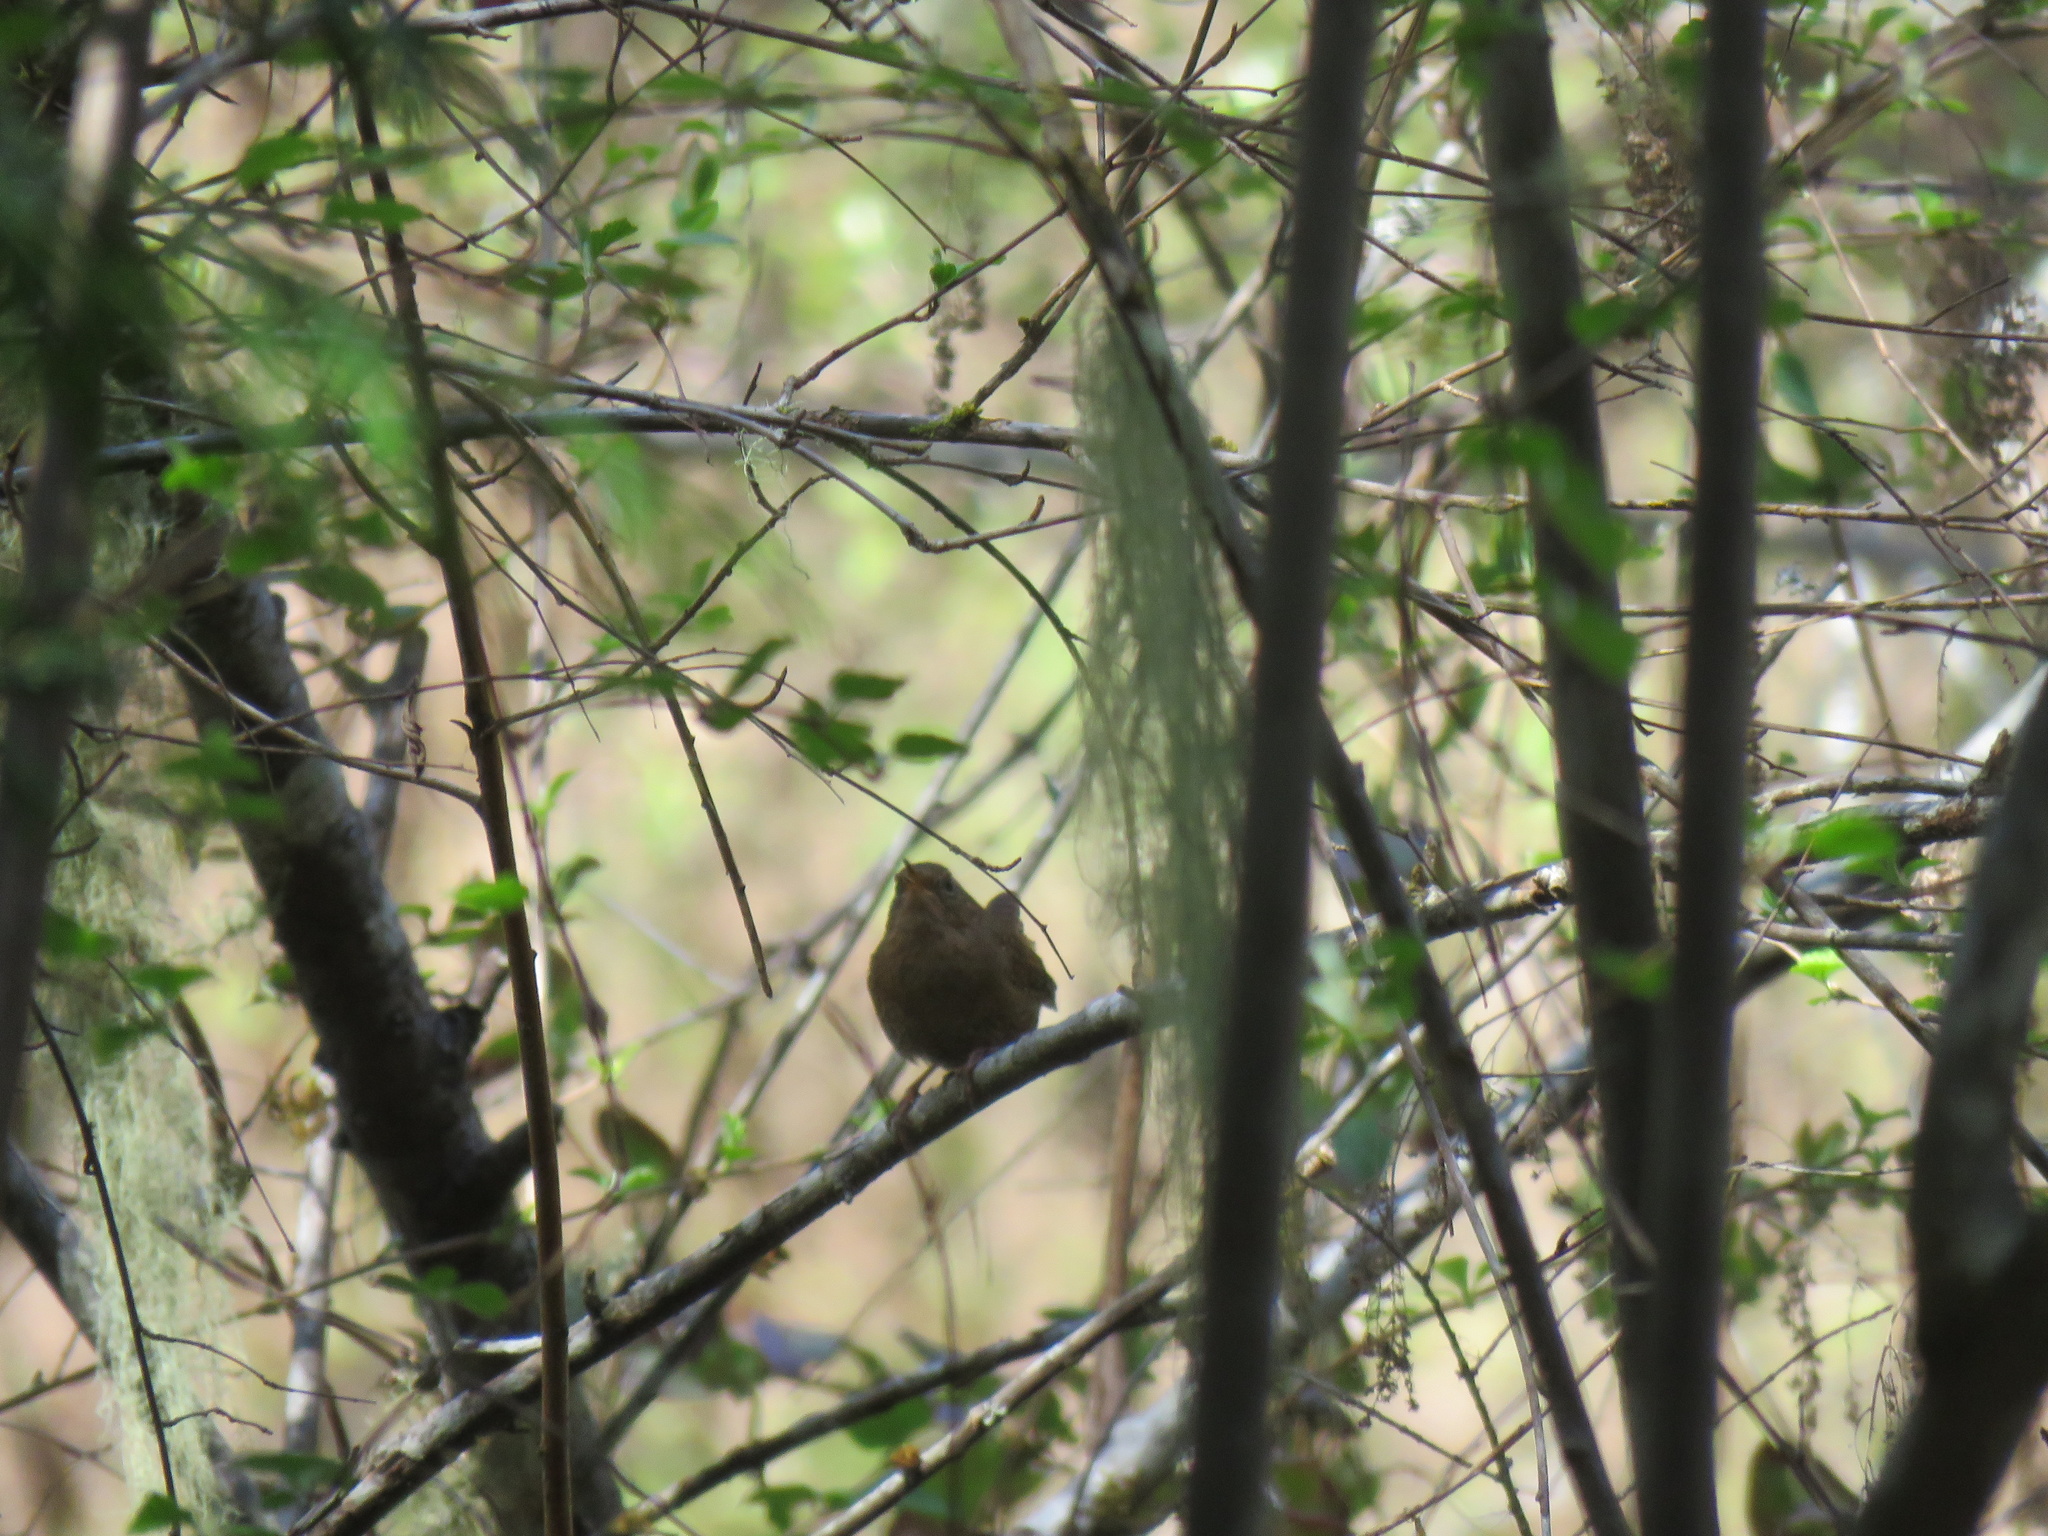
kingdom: Animalia
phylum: Chordata
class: Aves
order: Passeriformes
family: Troglodytidae
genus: Troglodytes
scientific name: Troglodytes pacificus
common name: Pacific wren
